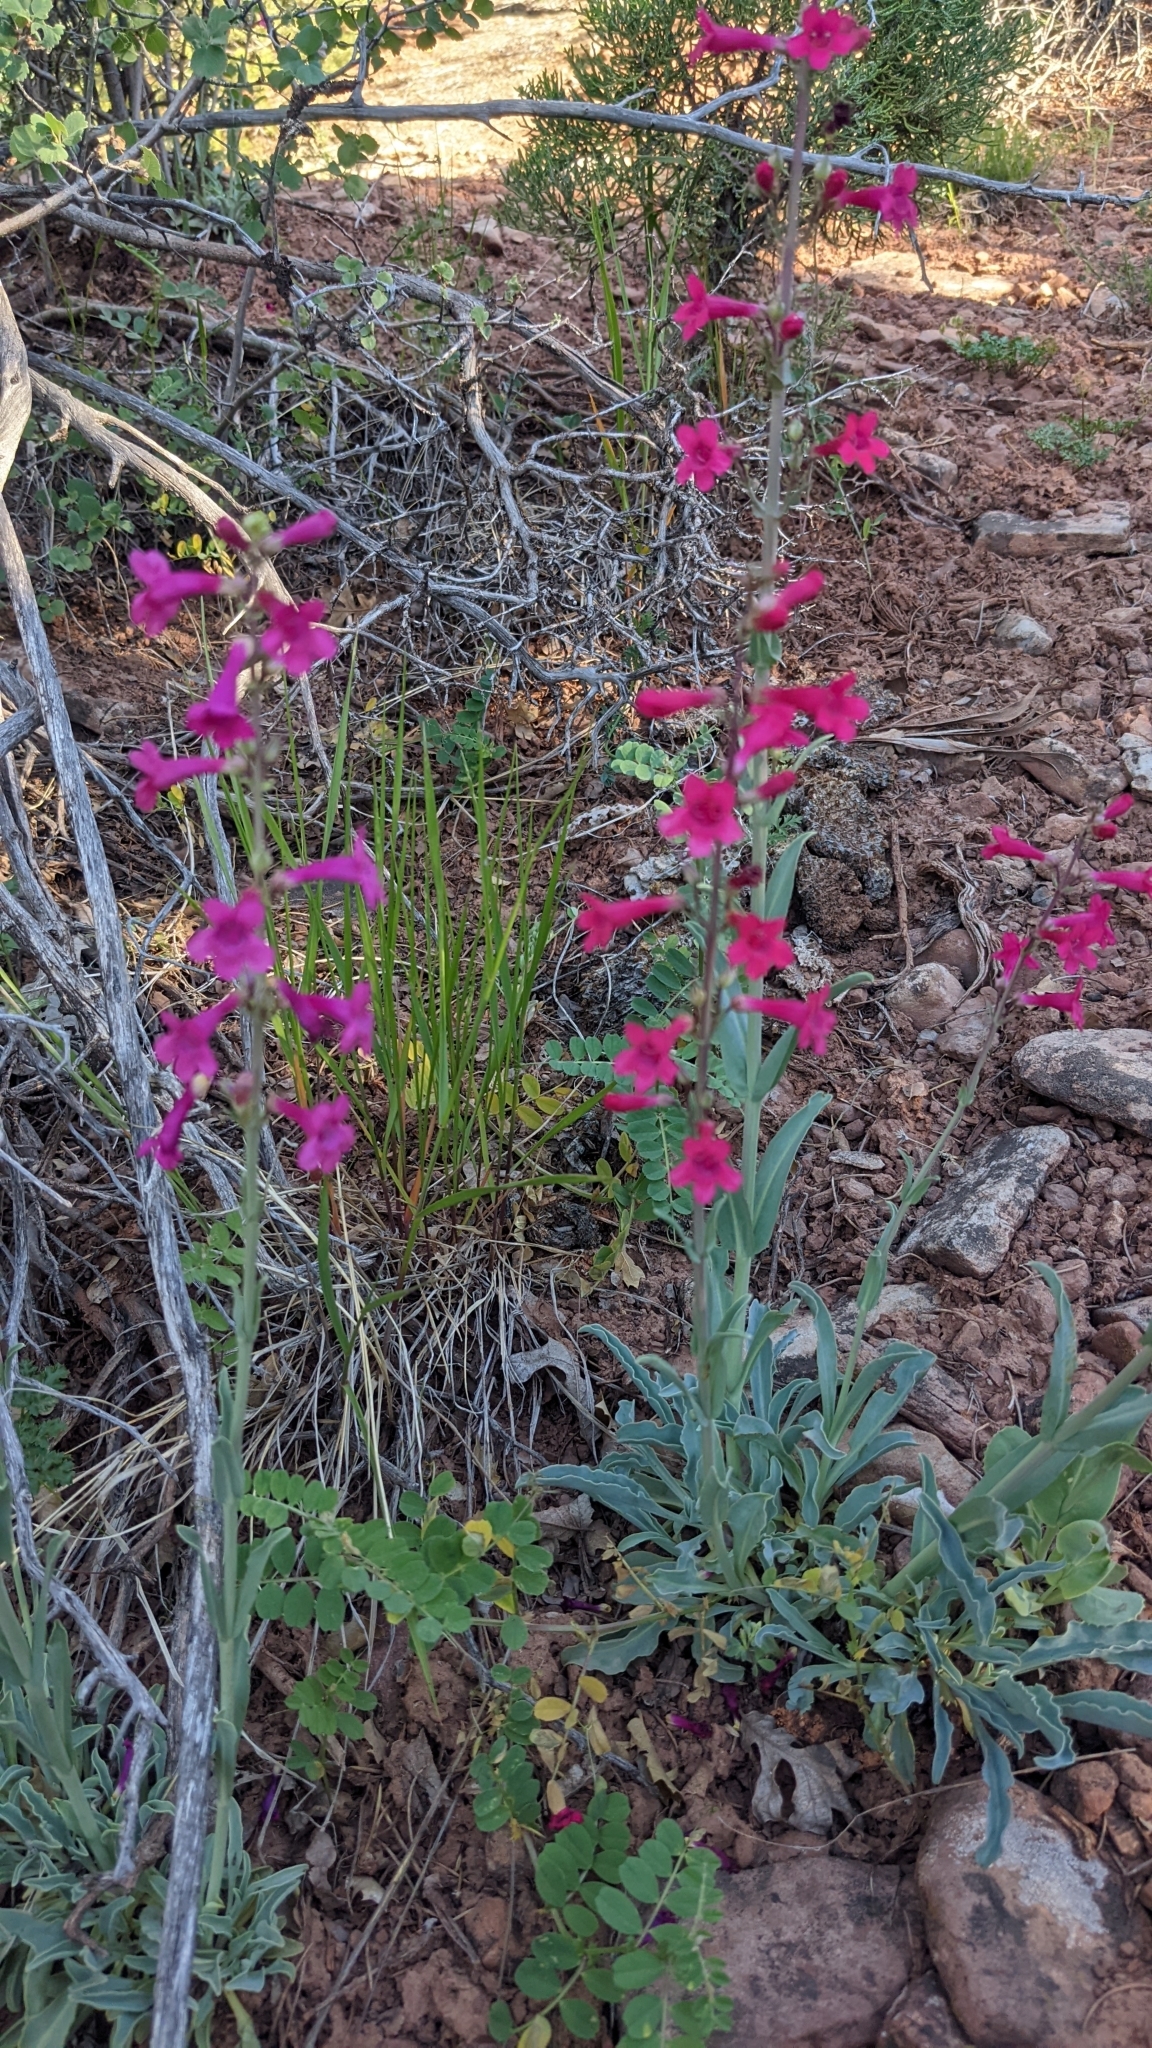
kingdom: Plantae
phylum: Tracheophyta
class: Magnoliopsida
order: Lamiales
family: Plantaginaceae
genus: Penstemon
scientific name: Penstemon confusus
